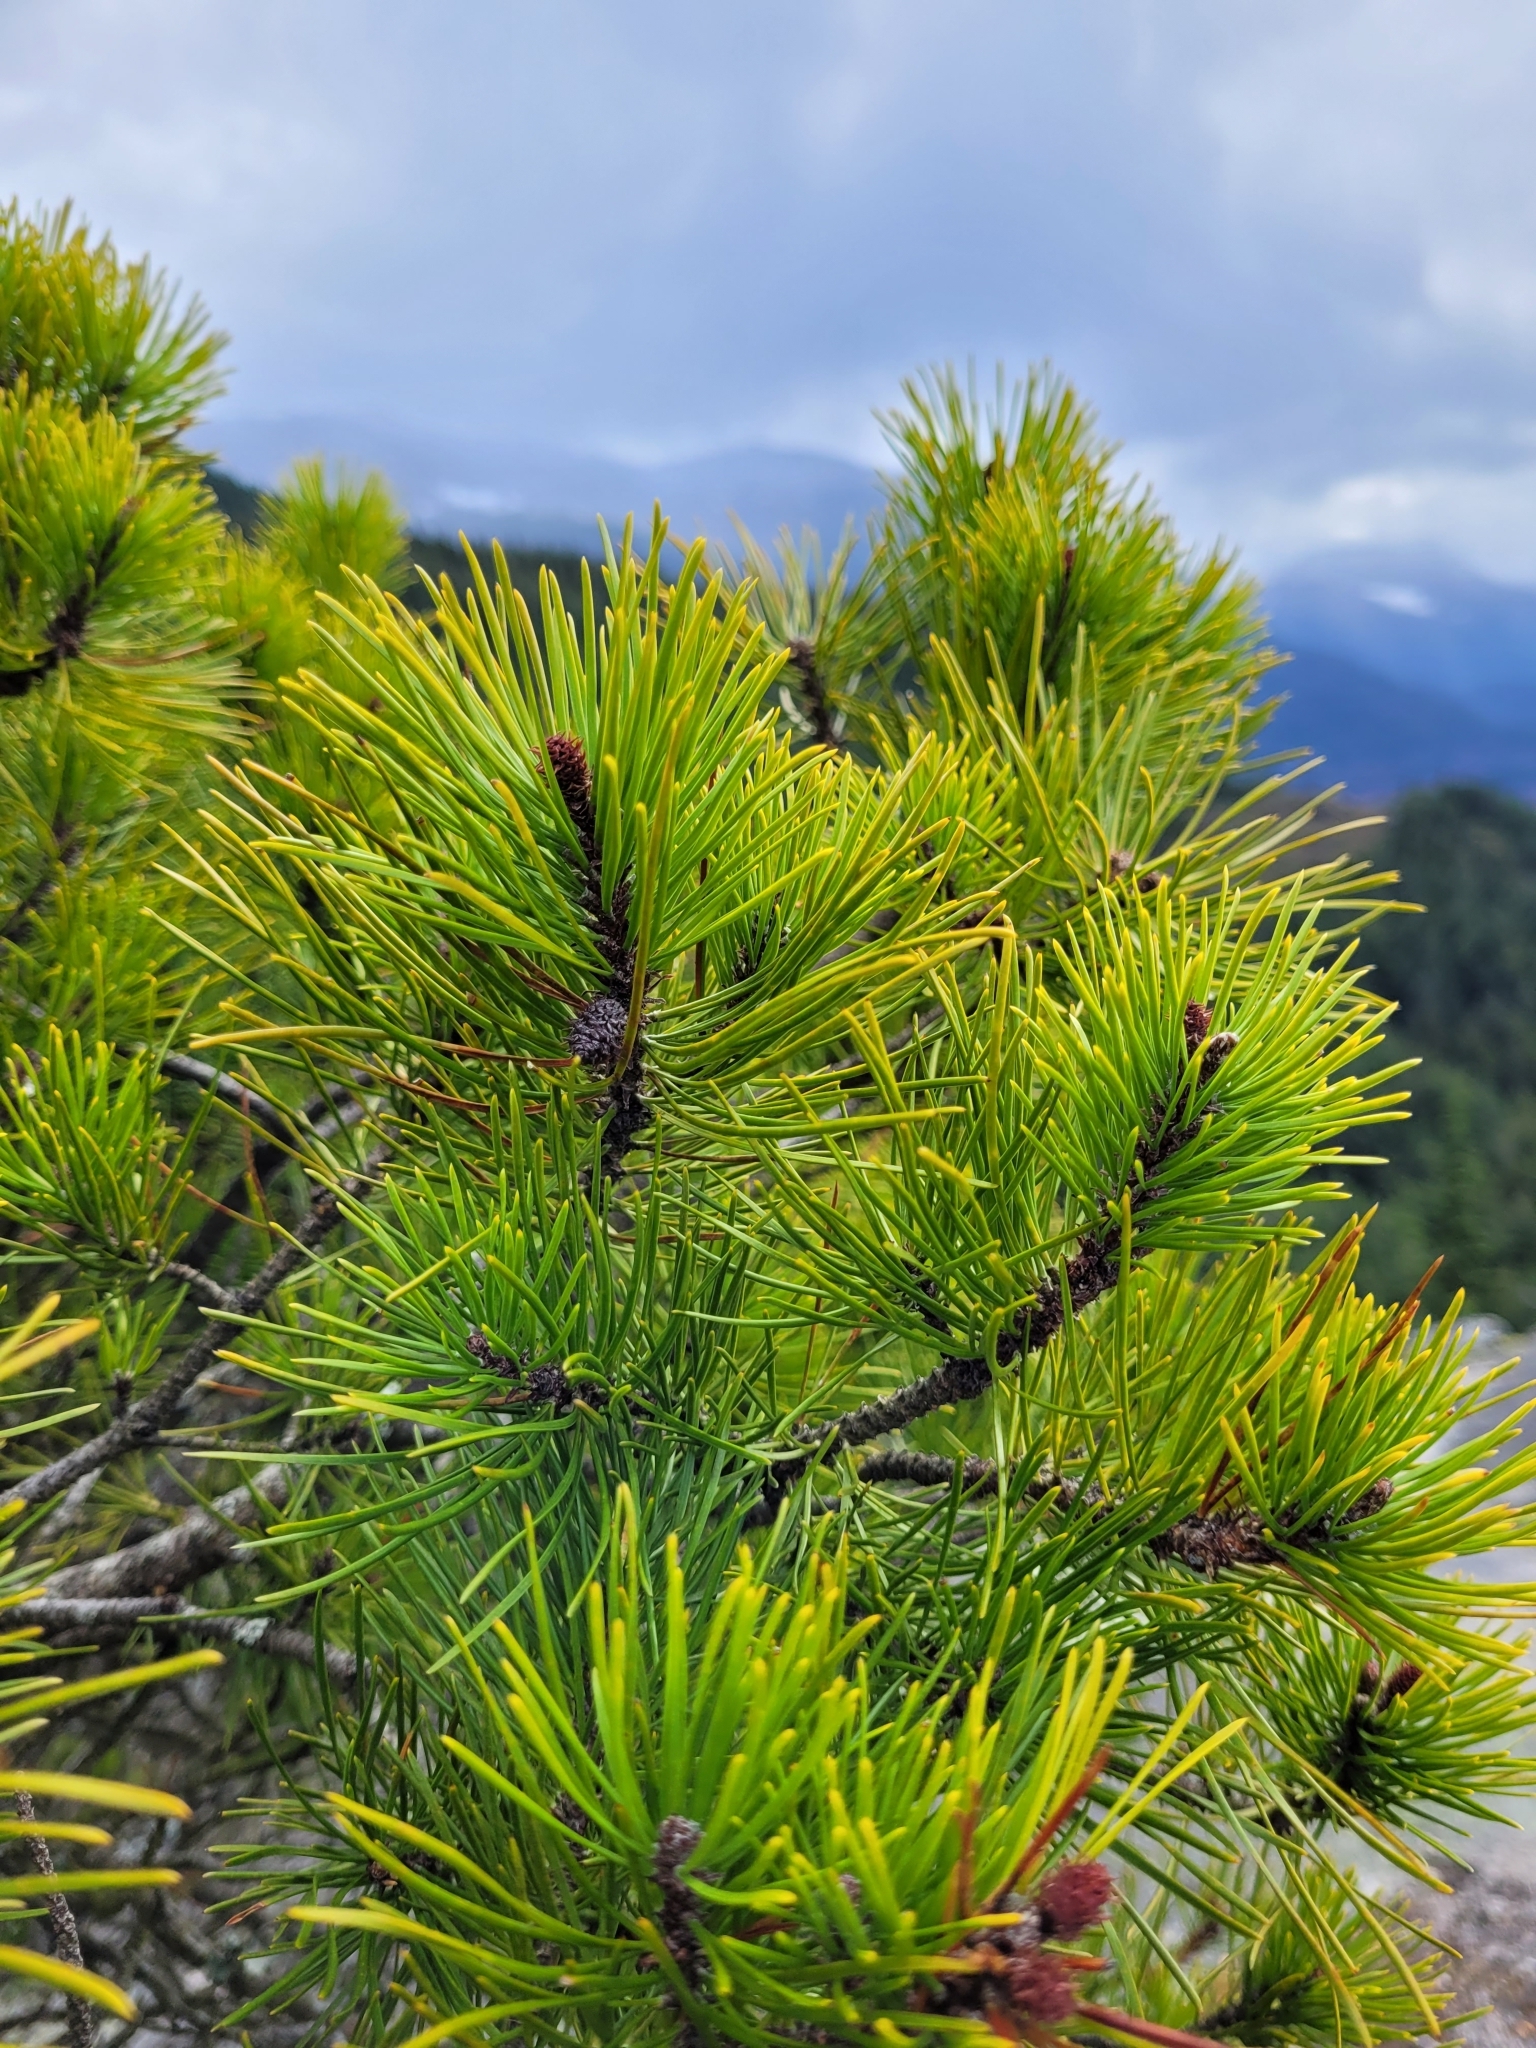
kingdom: Plantae
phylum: Tracheophyta
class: Pinopsida
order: Pinales
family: Pinaceae
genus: Pinus
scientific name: Pinus contorta
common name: Lodgepole pine
